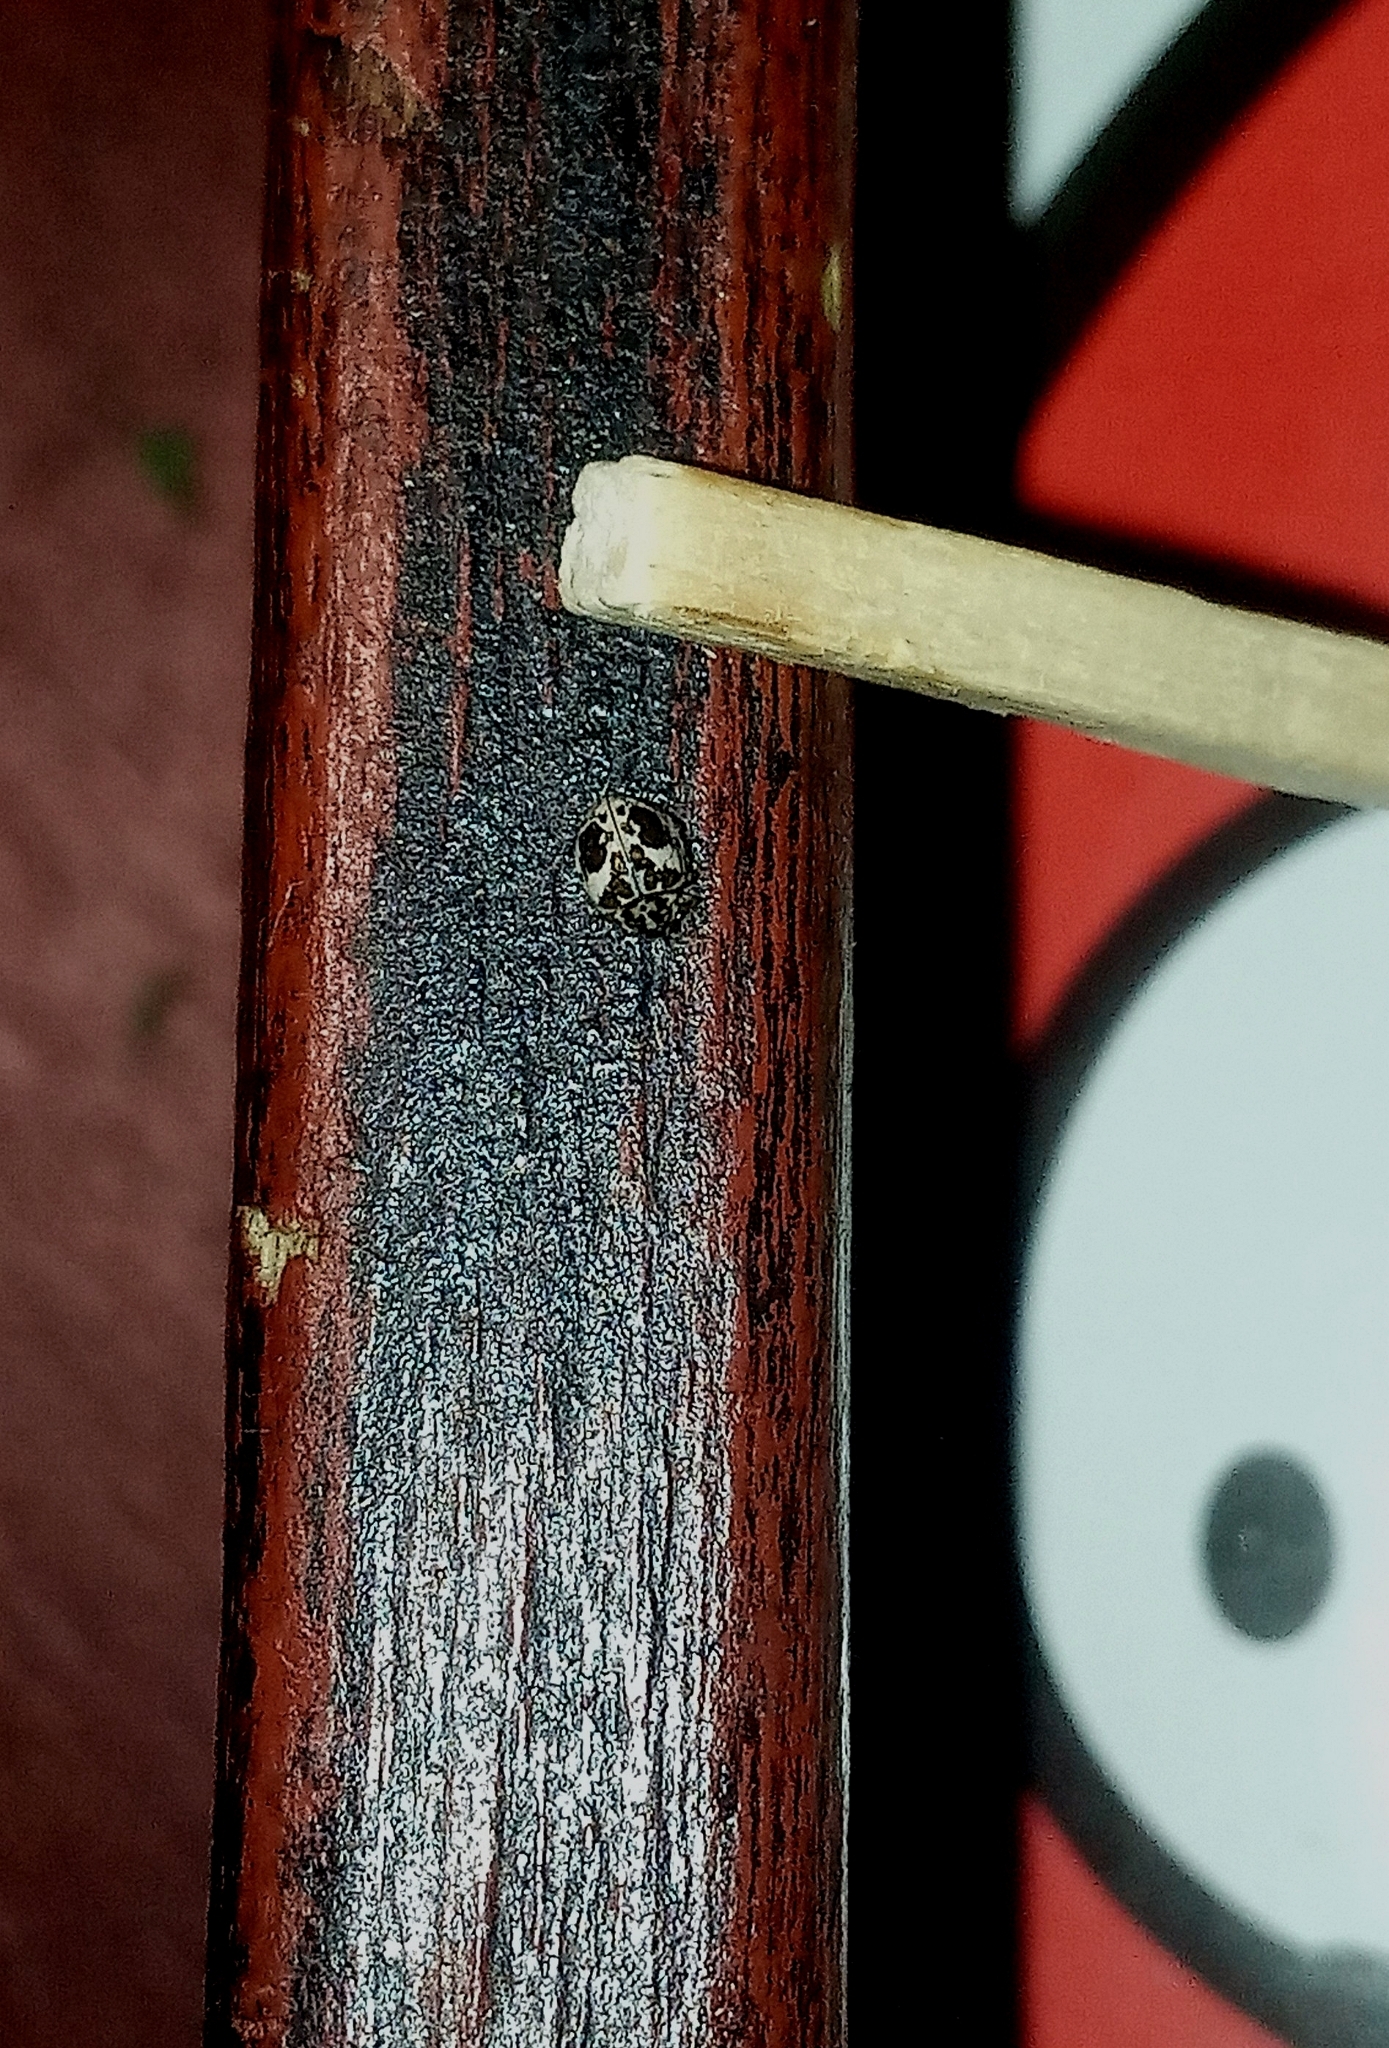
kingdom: Animalia
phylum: Arthropoda
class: Insecta
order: Coleoptera
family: Coccinellidae
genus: Psyllobora
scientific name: Psyllobora
